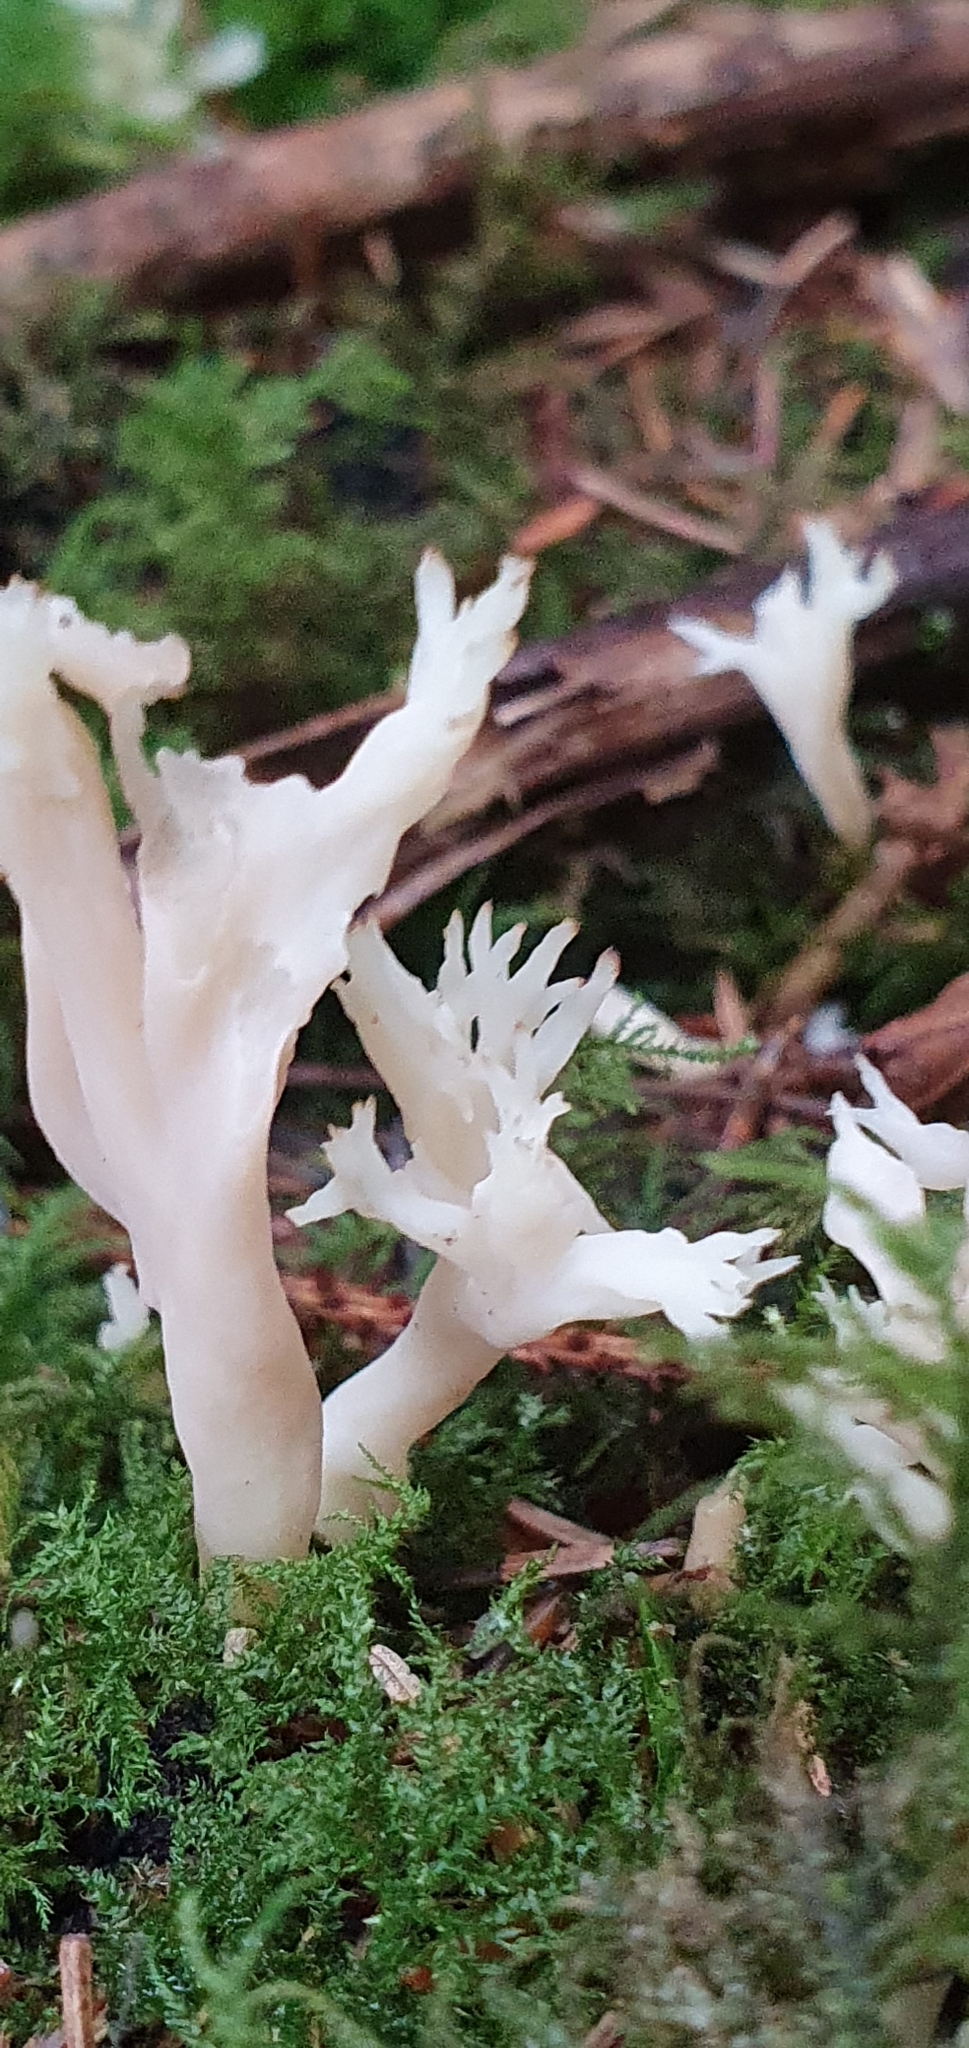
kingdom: Fungi
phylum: Basidiomycota
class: Agaricomycetes
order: Cantharellales
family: Hydnaceae
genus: Clavulina
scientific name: Clavulina coralloides
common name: Crested coral
